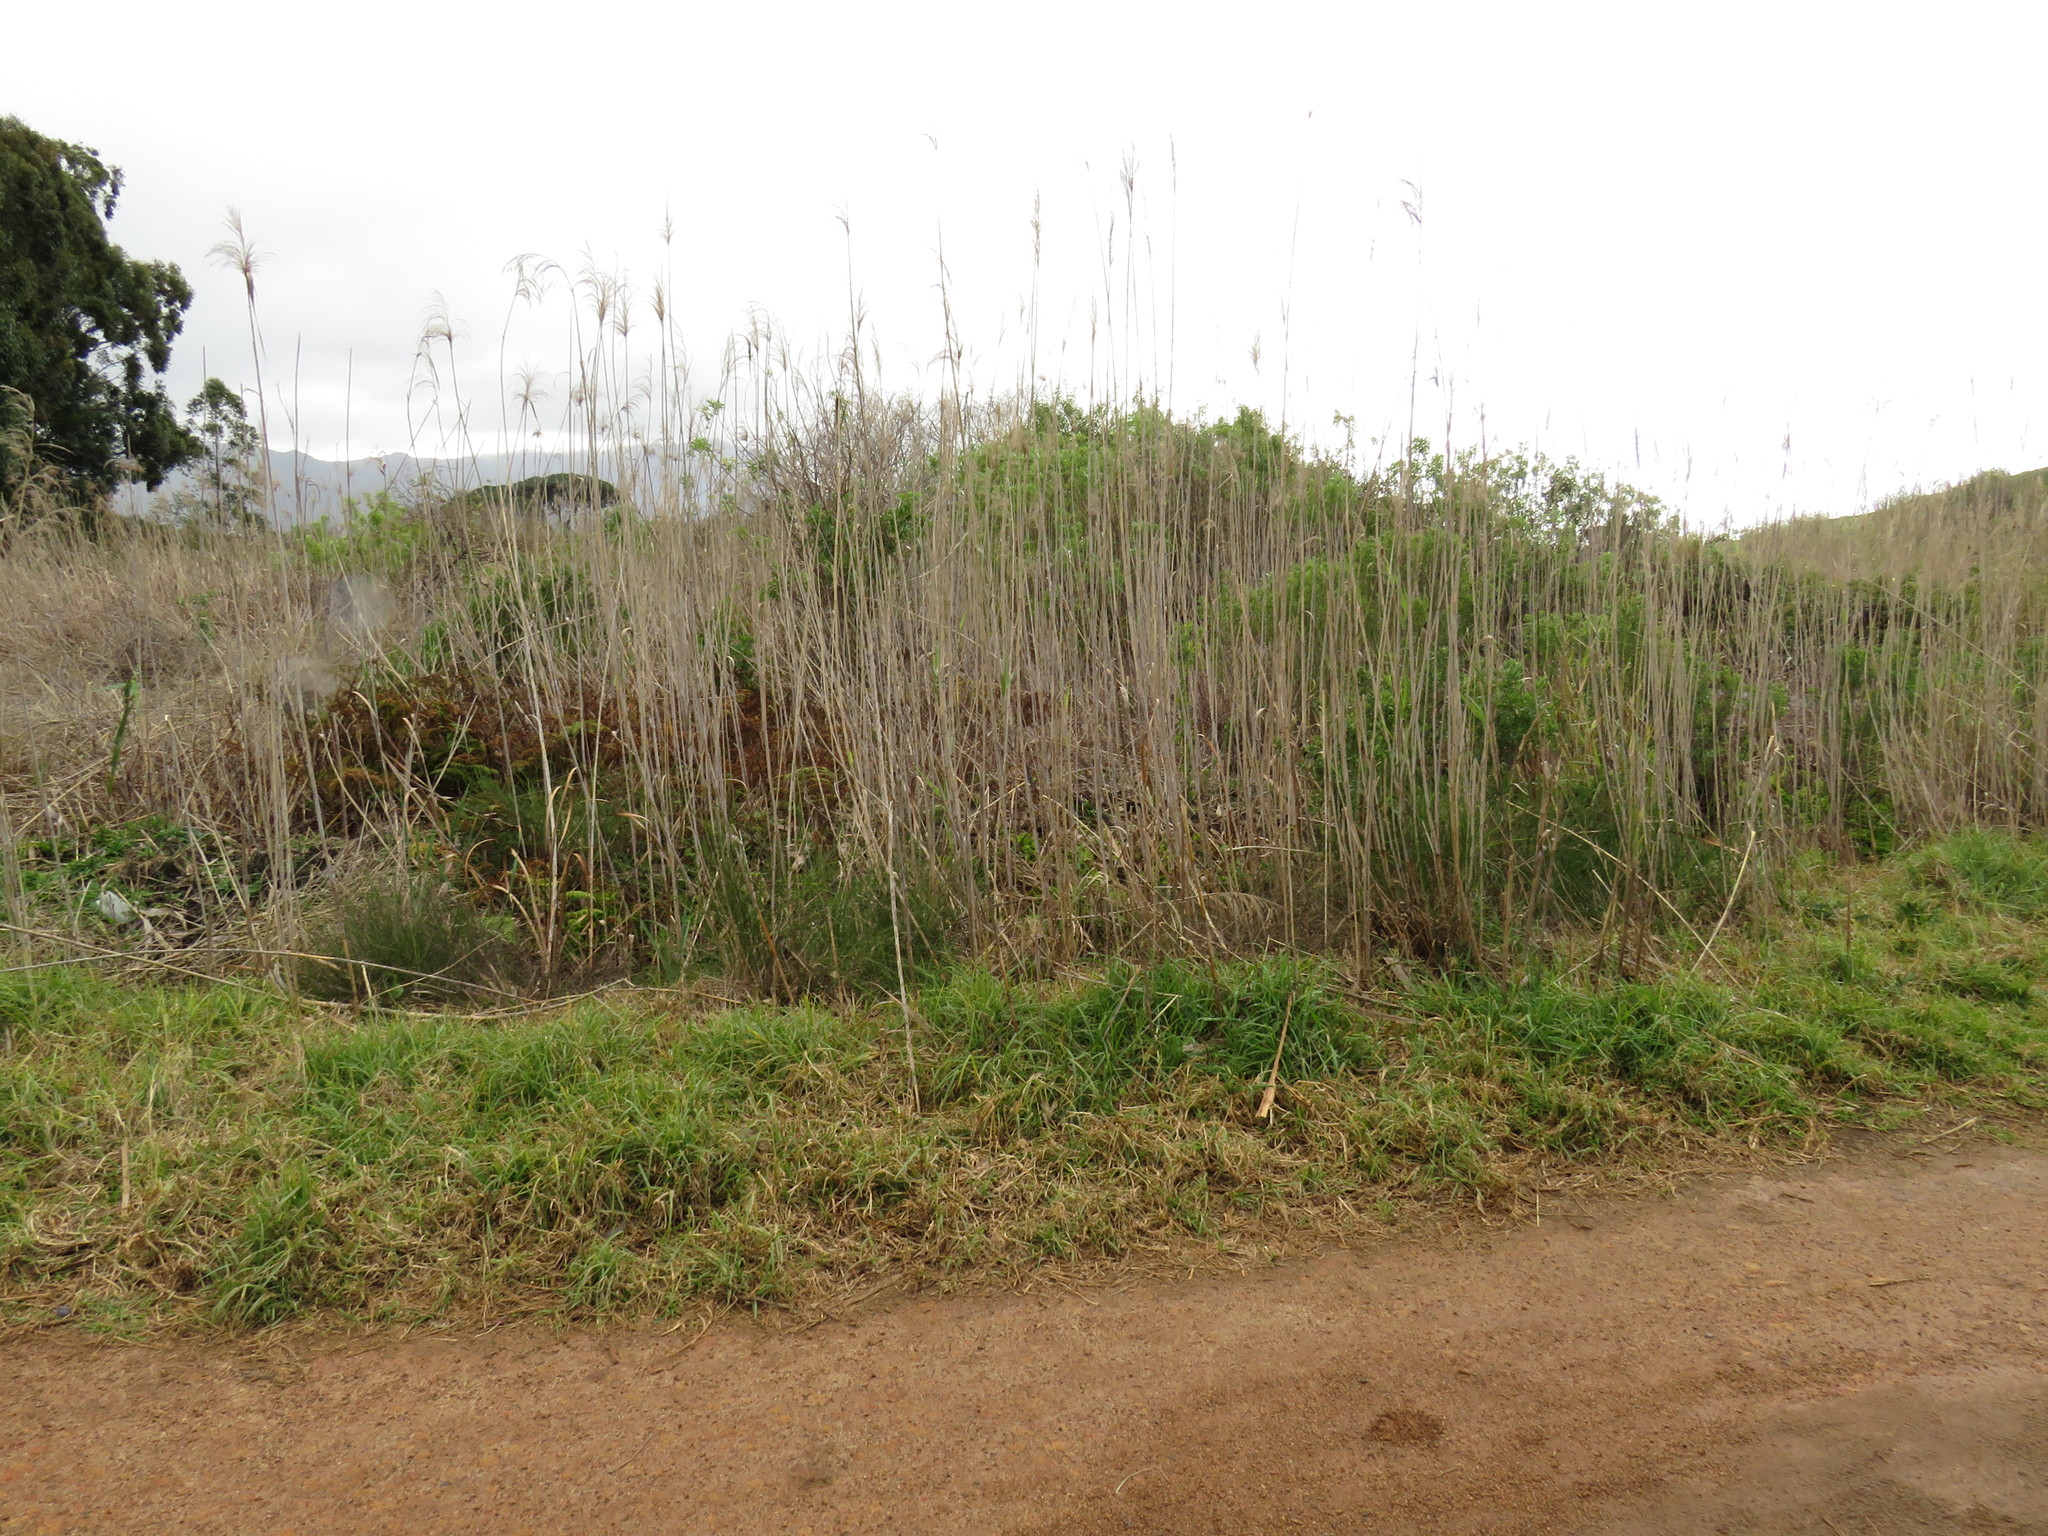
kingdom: Plantae
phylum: Tracheophyta
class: Magnoliopsida
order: Fabales
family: Fabaceae
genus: Psoralea
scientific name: Psoralea fascicularis
